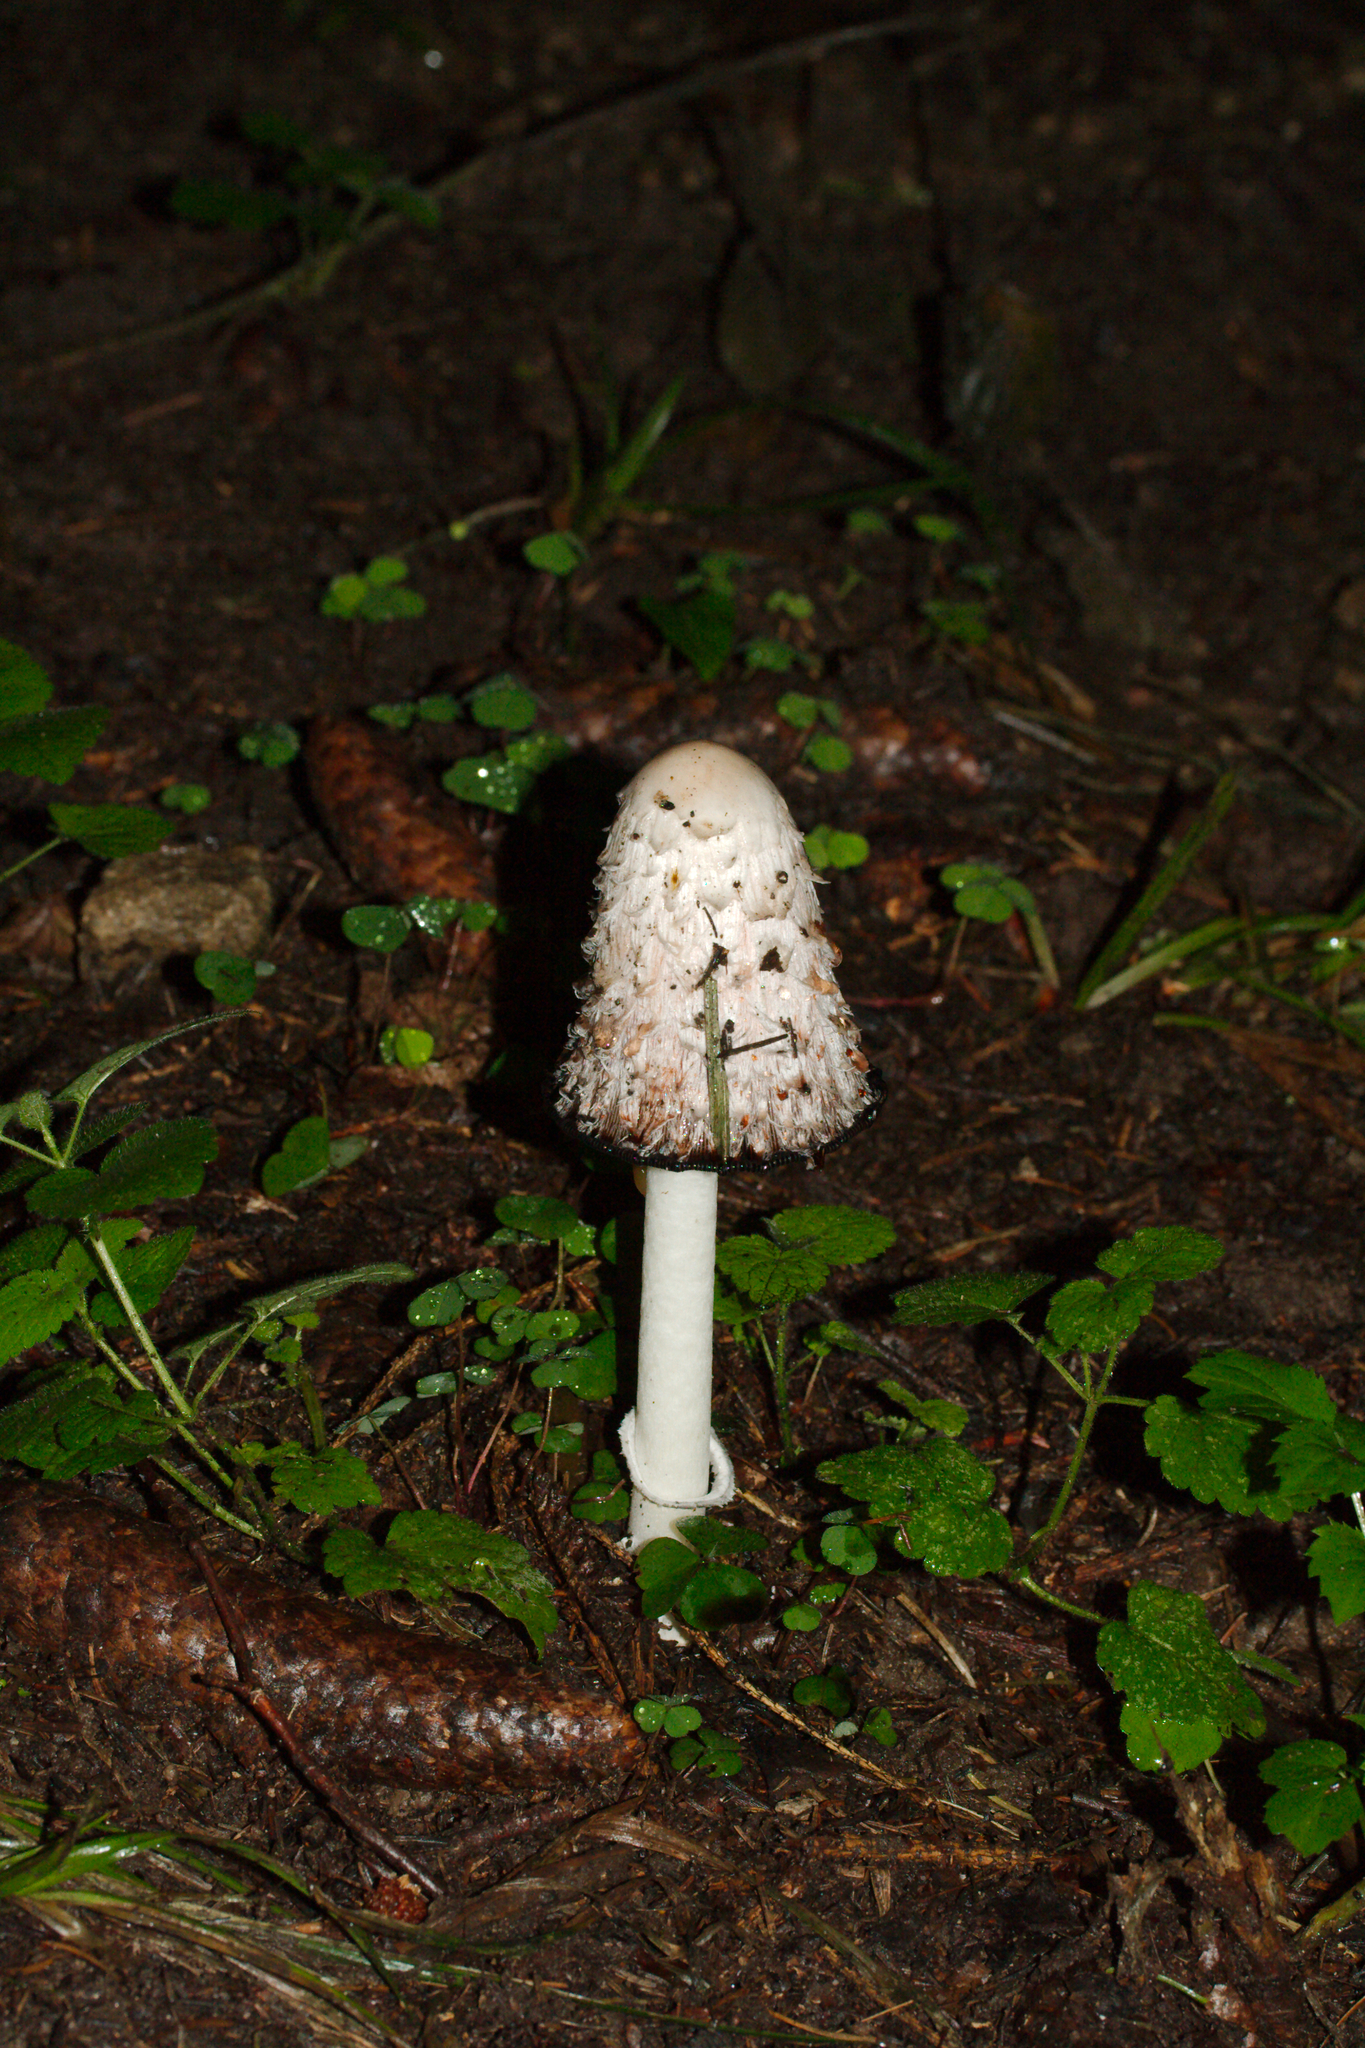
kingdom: Fungi
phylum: Basidiomycota
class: Agaricomycetes
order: Agaricales
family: Agaricaceae
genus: Coprinus
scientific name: Coprinus comatus
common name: Lawyer's wig
